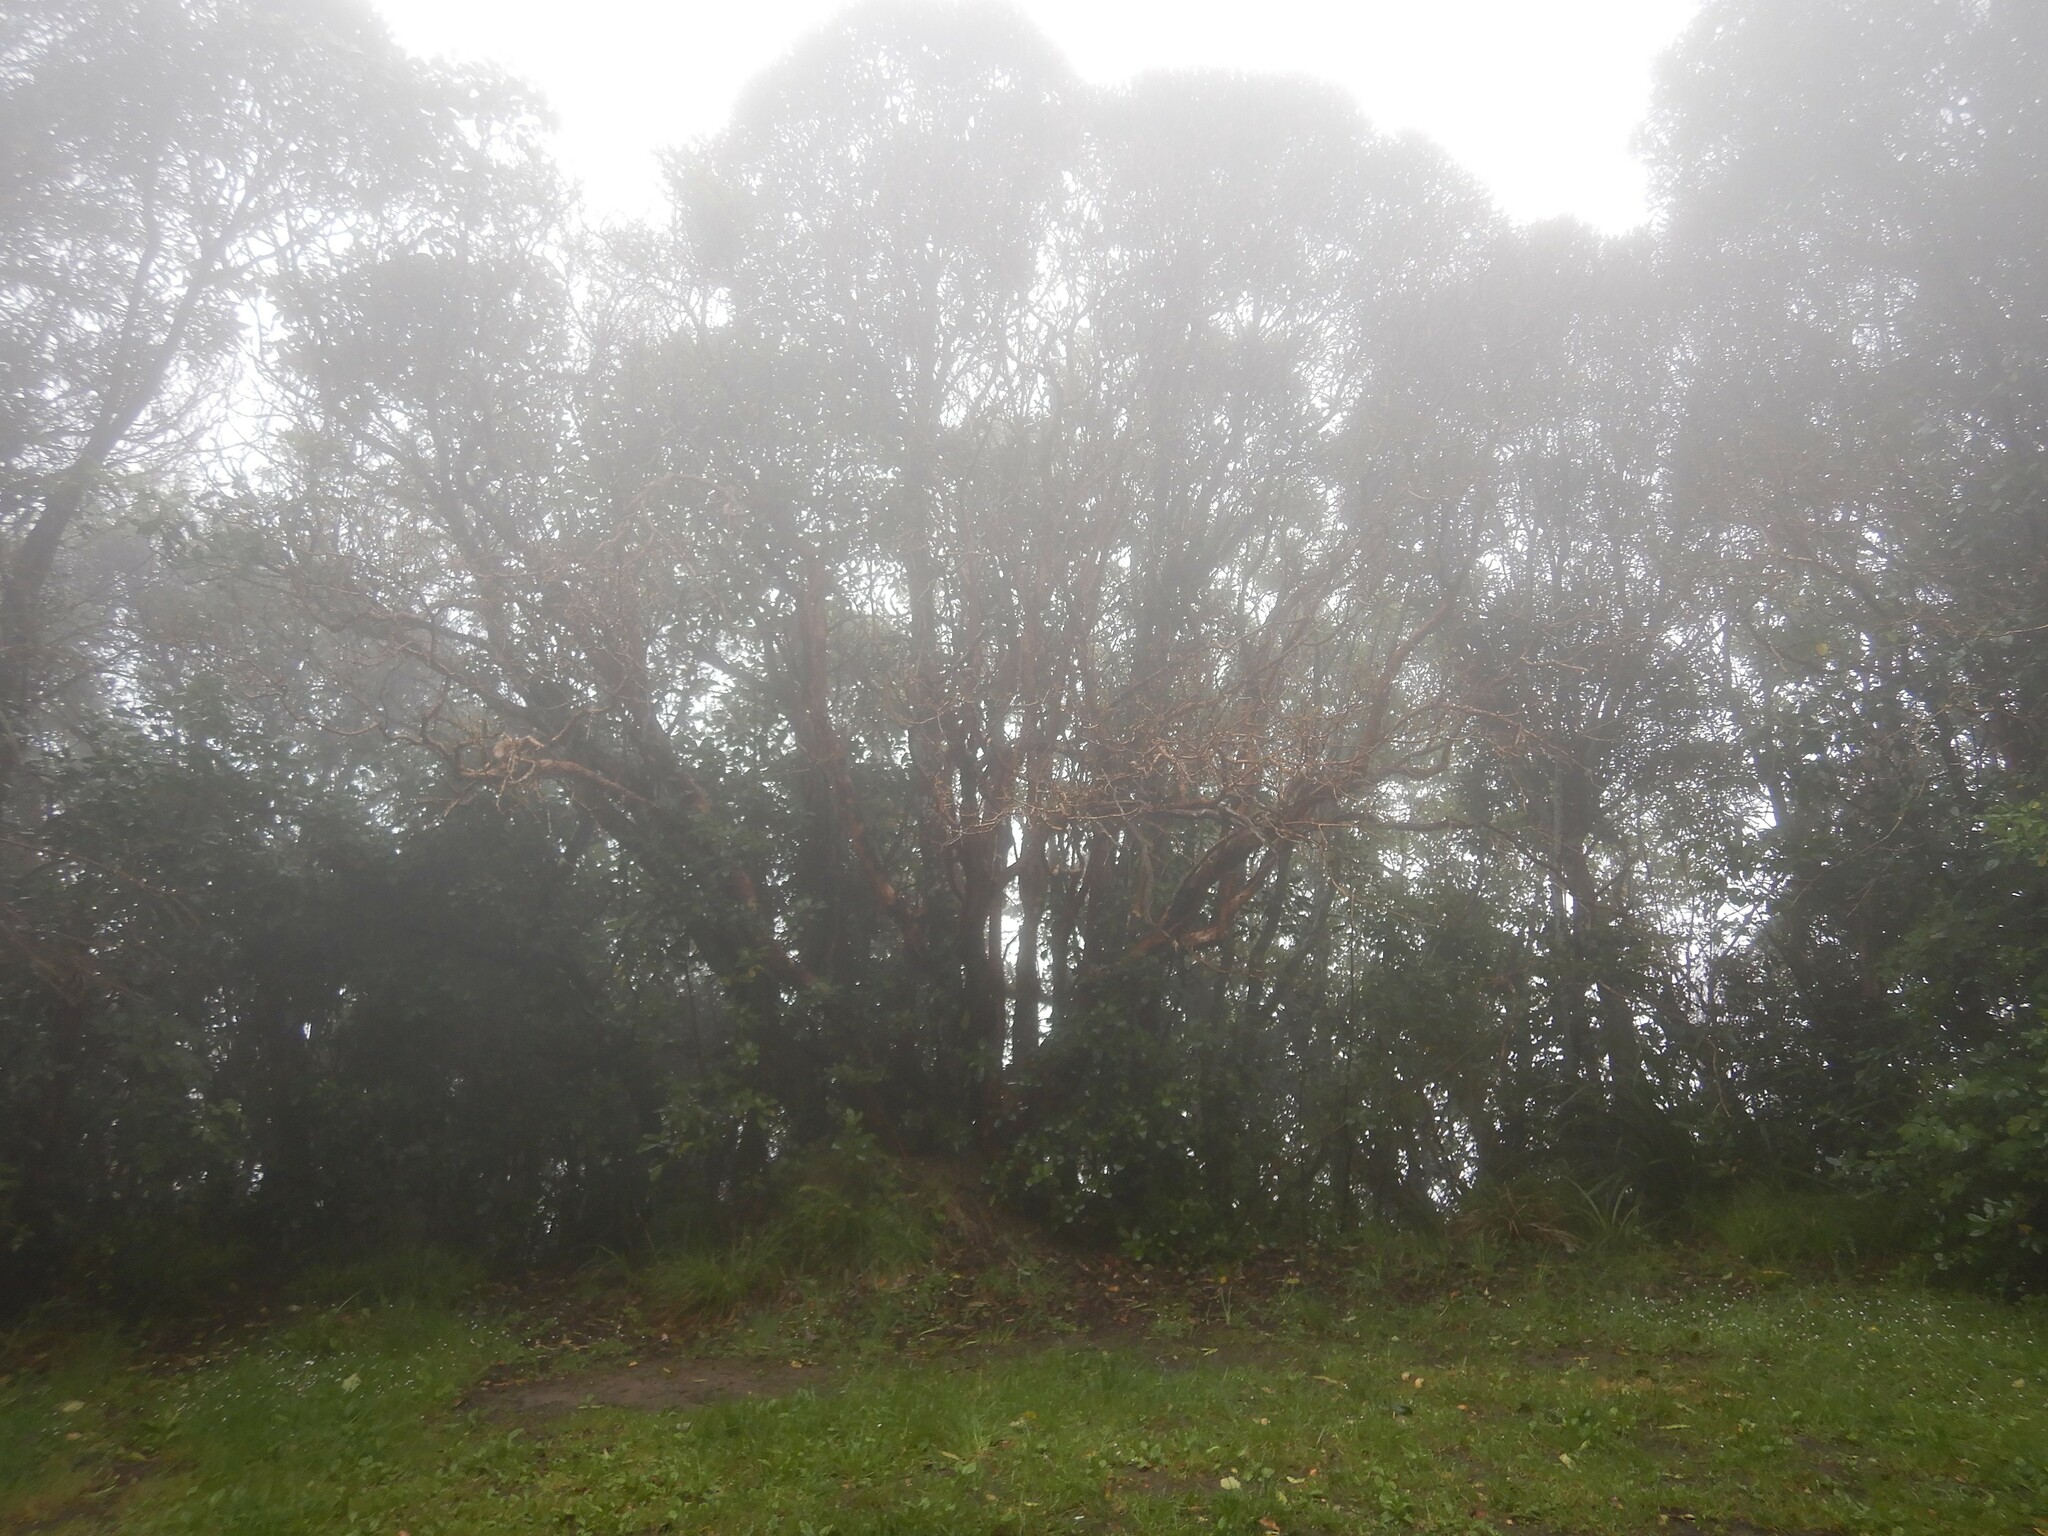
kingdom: Plantae
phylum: Tracheophyta
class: Magnoliopsida
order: Myrtales
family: Onagraceae
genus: Fuchsia
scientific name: Fuchsia excorticata
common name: Tree fuchsia
